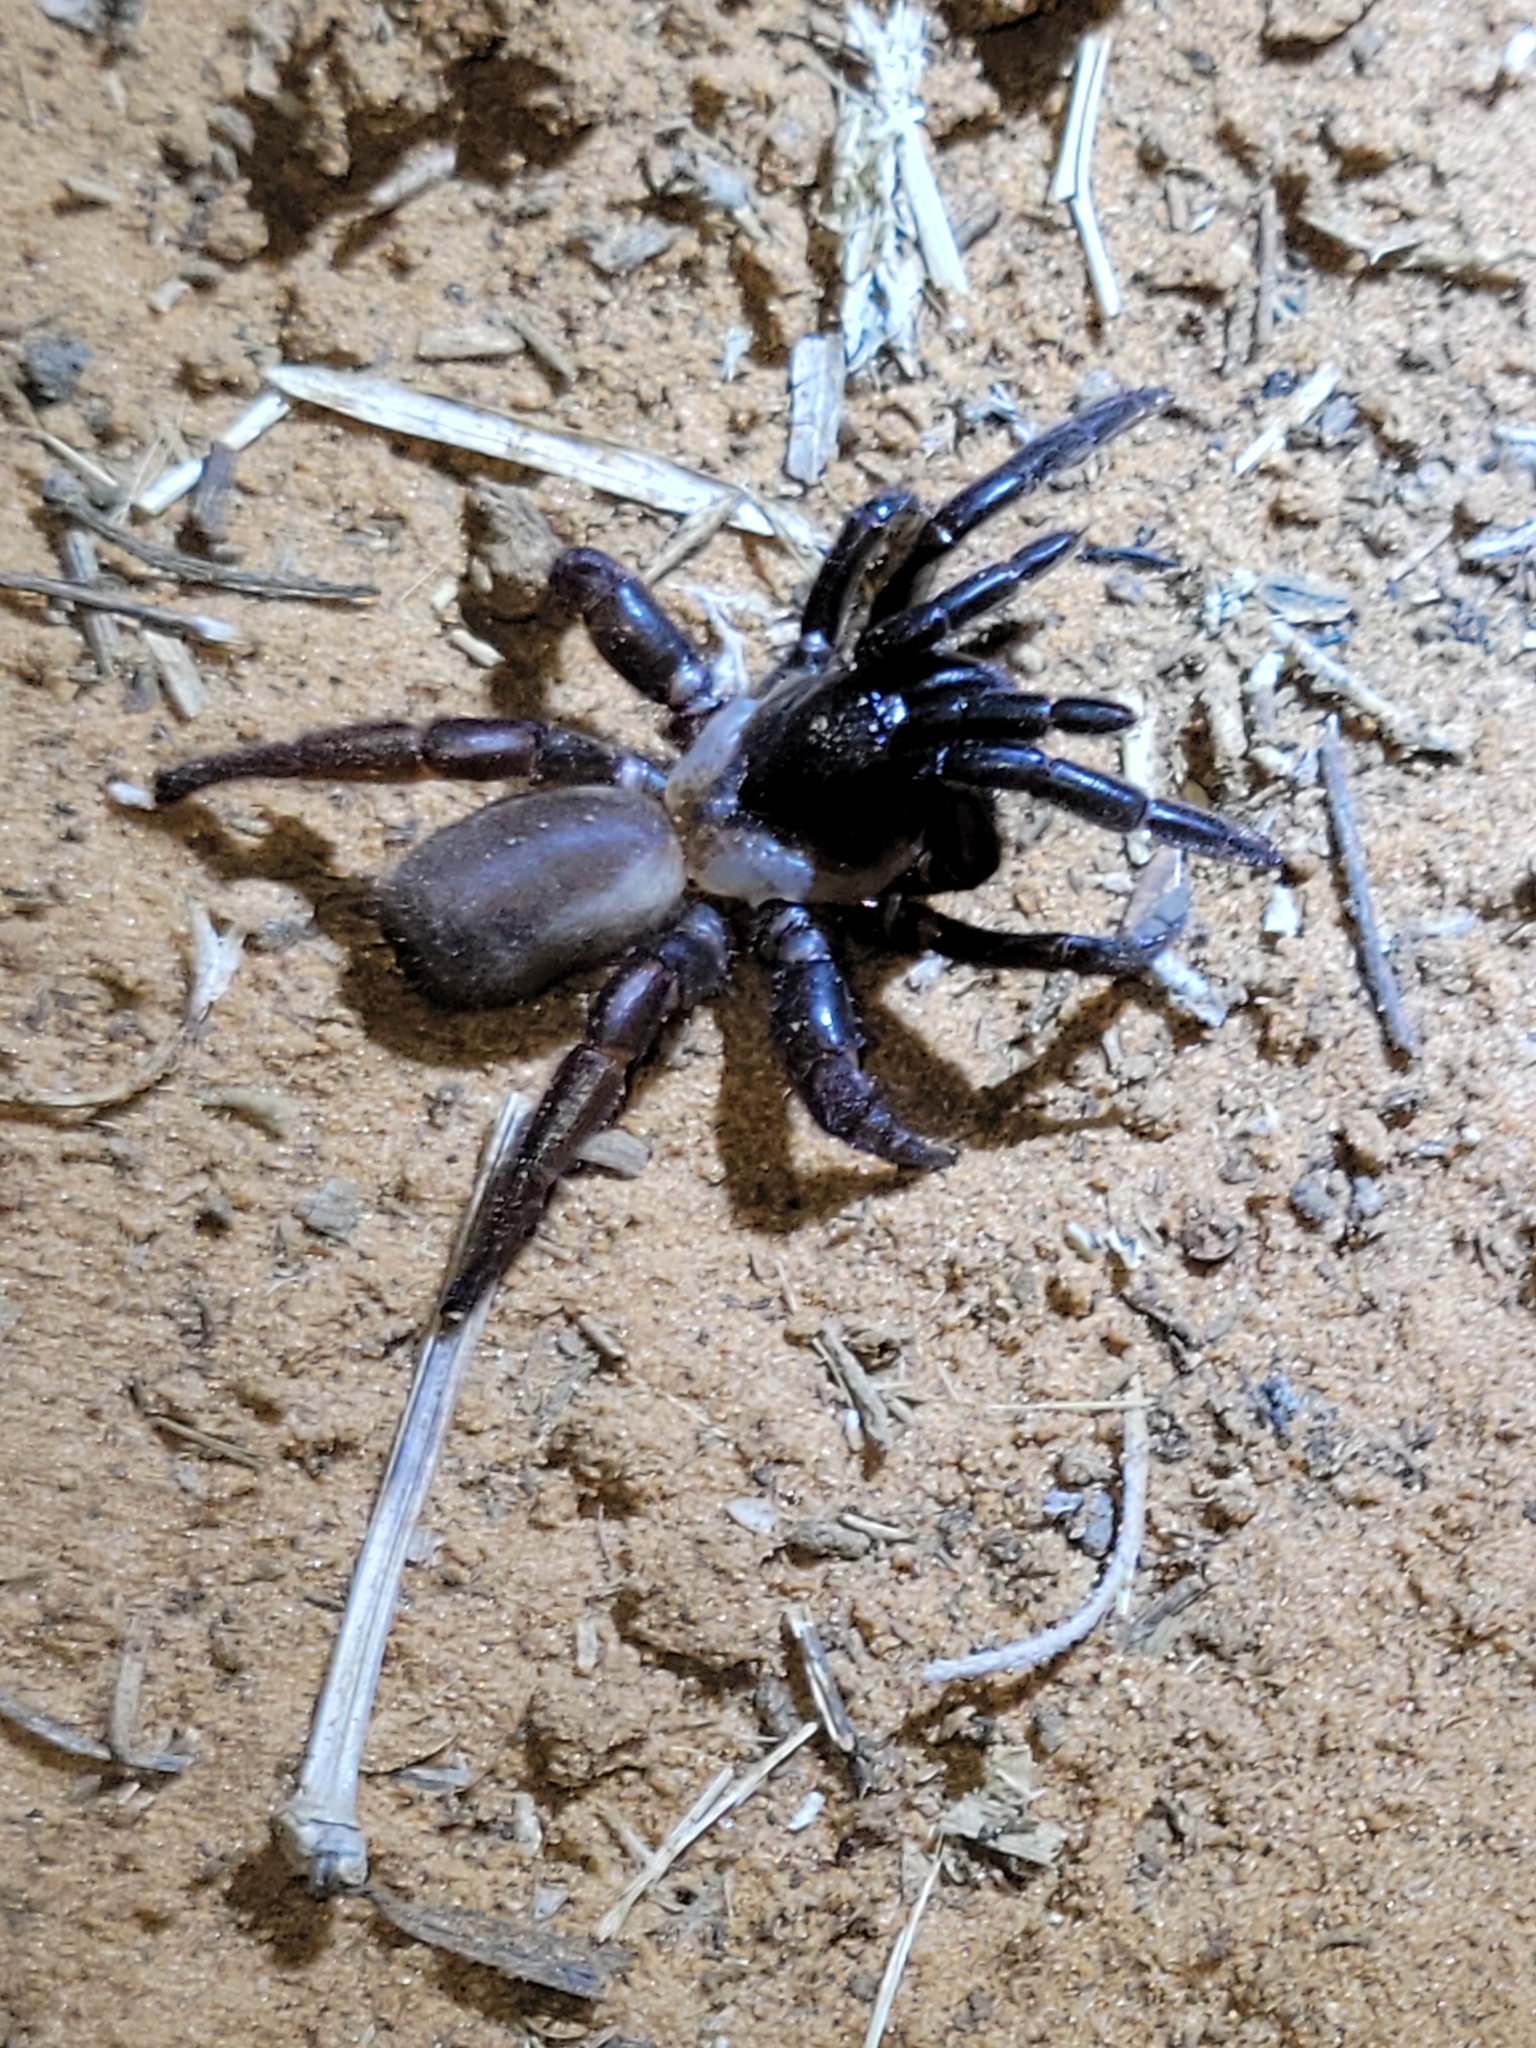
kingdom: Animalia
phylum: Arthropoda
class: Arachnida
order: Araneae
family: Euctenizidae
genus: Eucteniza
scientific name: Eucteniza relata
